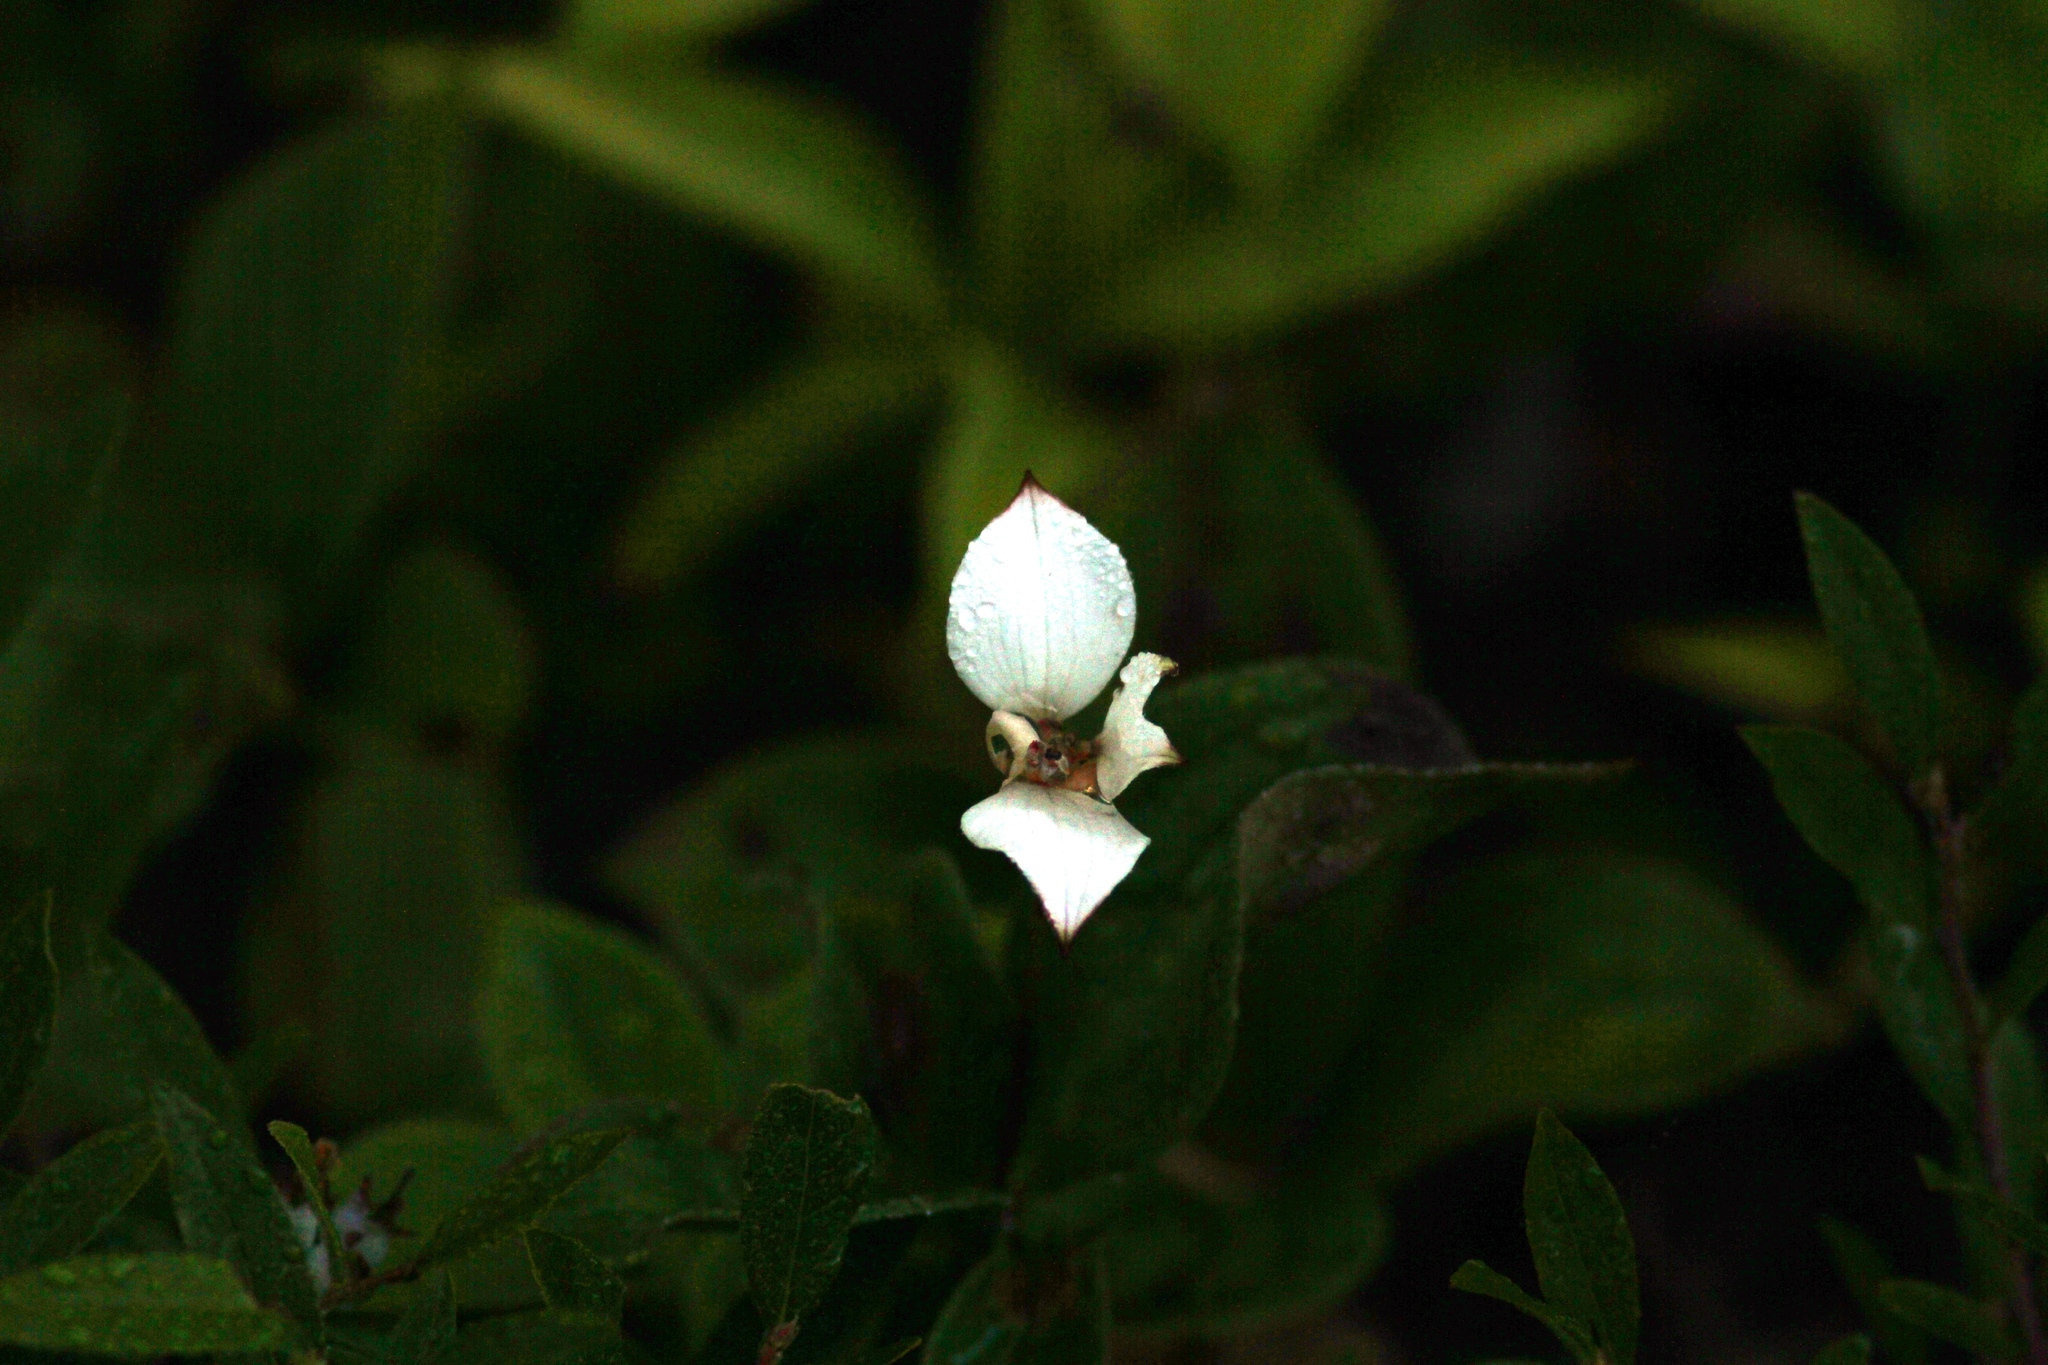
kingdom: Plantae
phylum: Tracheophyta
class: Magnoliopsida
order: Cornales
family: Cornaceae
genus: Cornus
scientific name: Cornus canadensis
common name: Creeping dogwood
